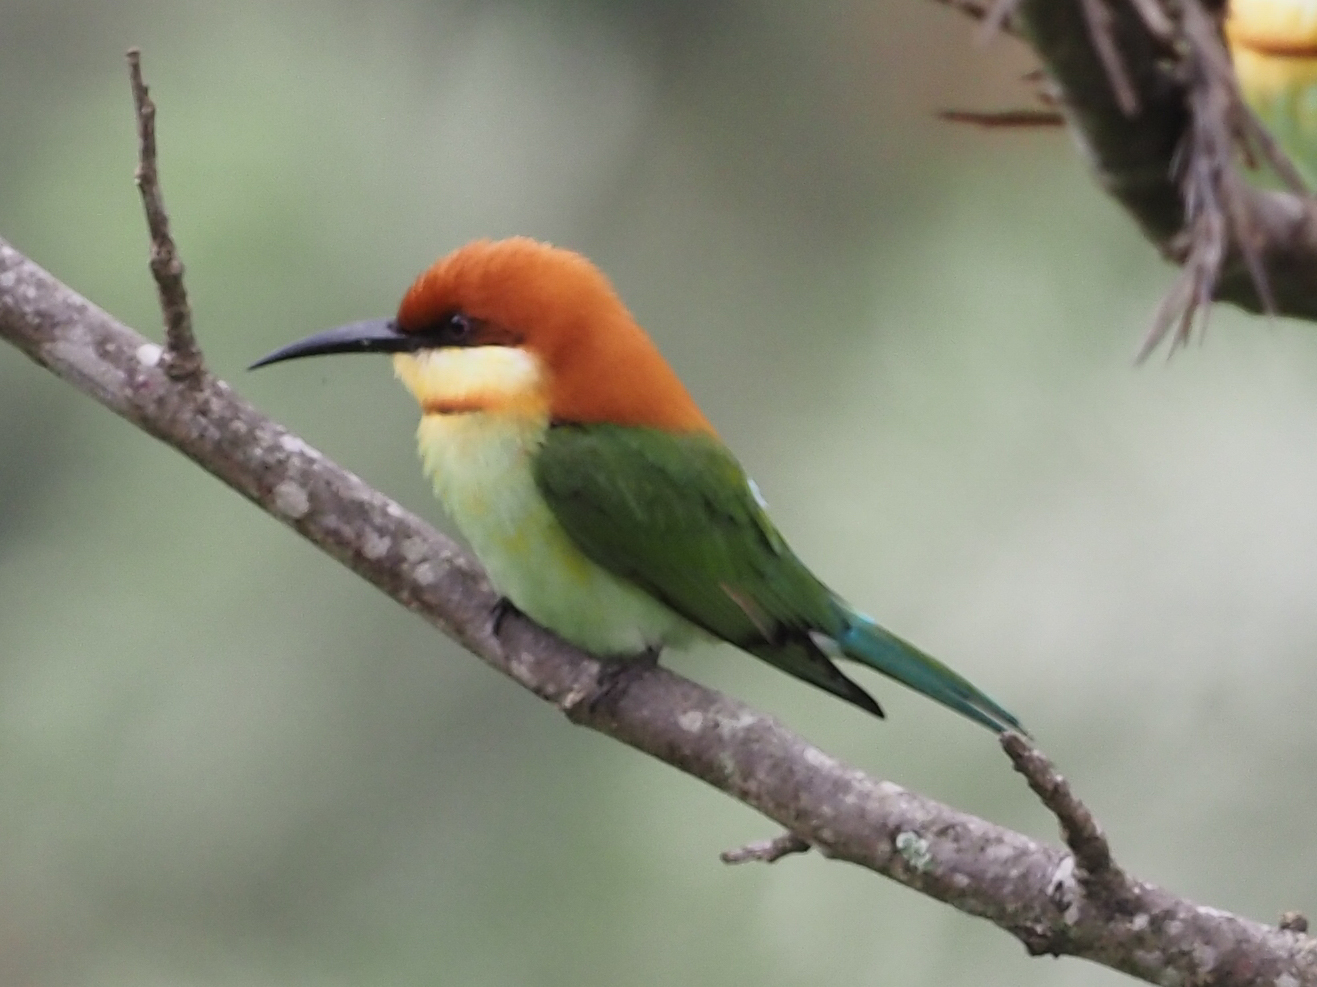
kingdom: Animalia
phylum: Chordata
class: Aves
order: Coraciiformes
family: Meropidae
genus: Merops
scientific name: Merops leschenaulti
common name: Chestnut-headed bee-eater
